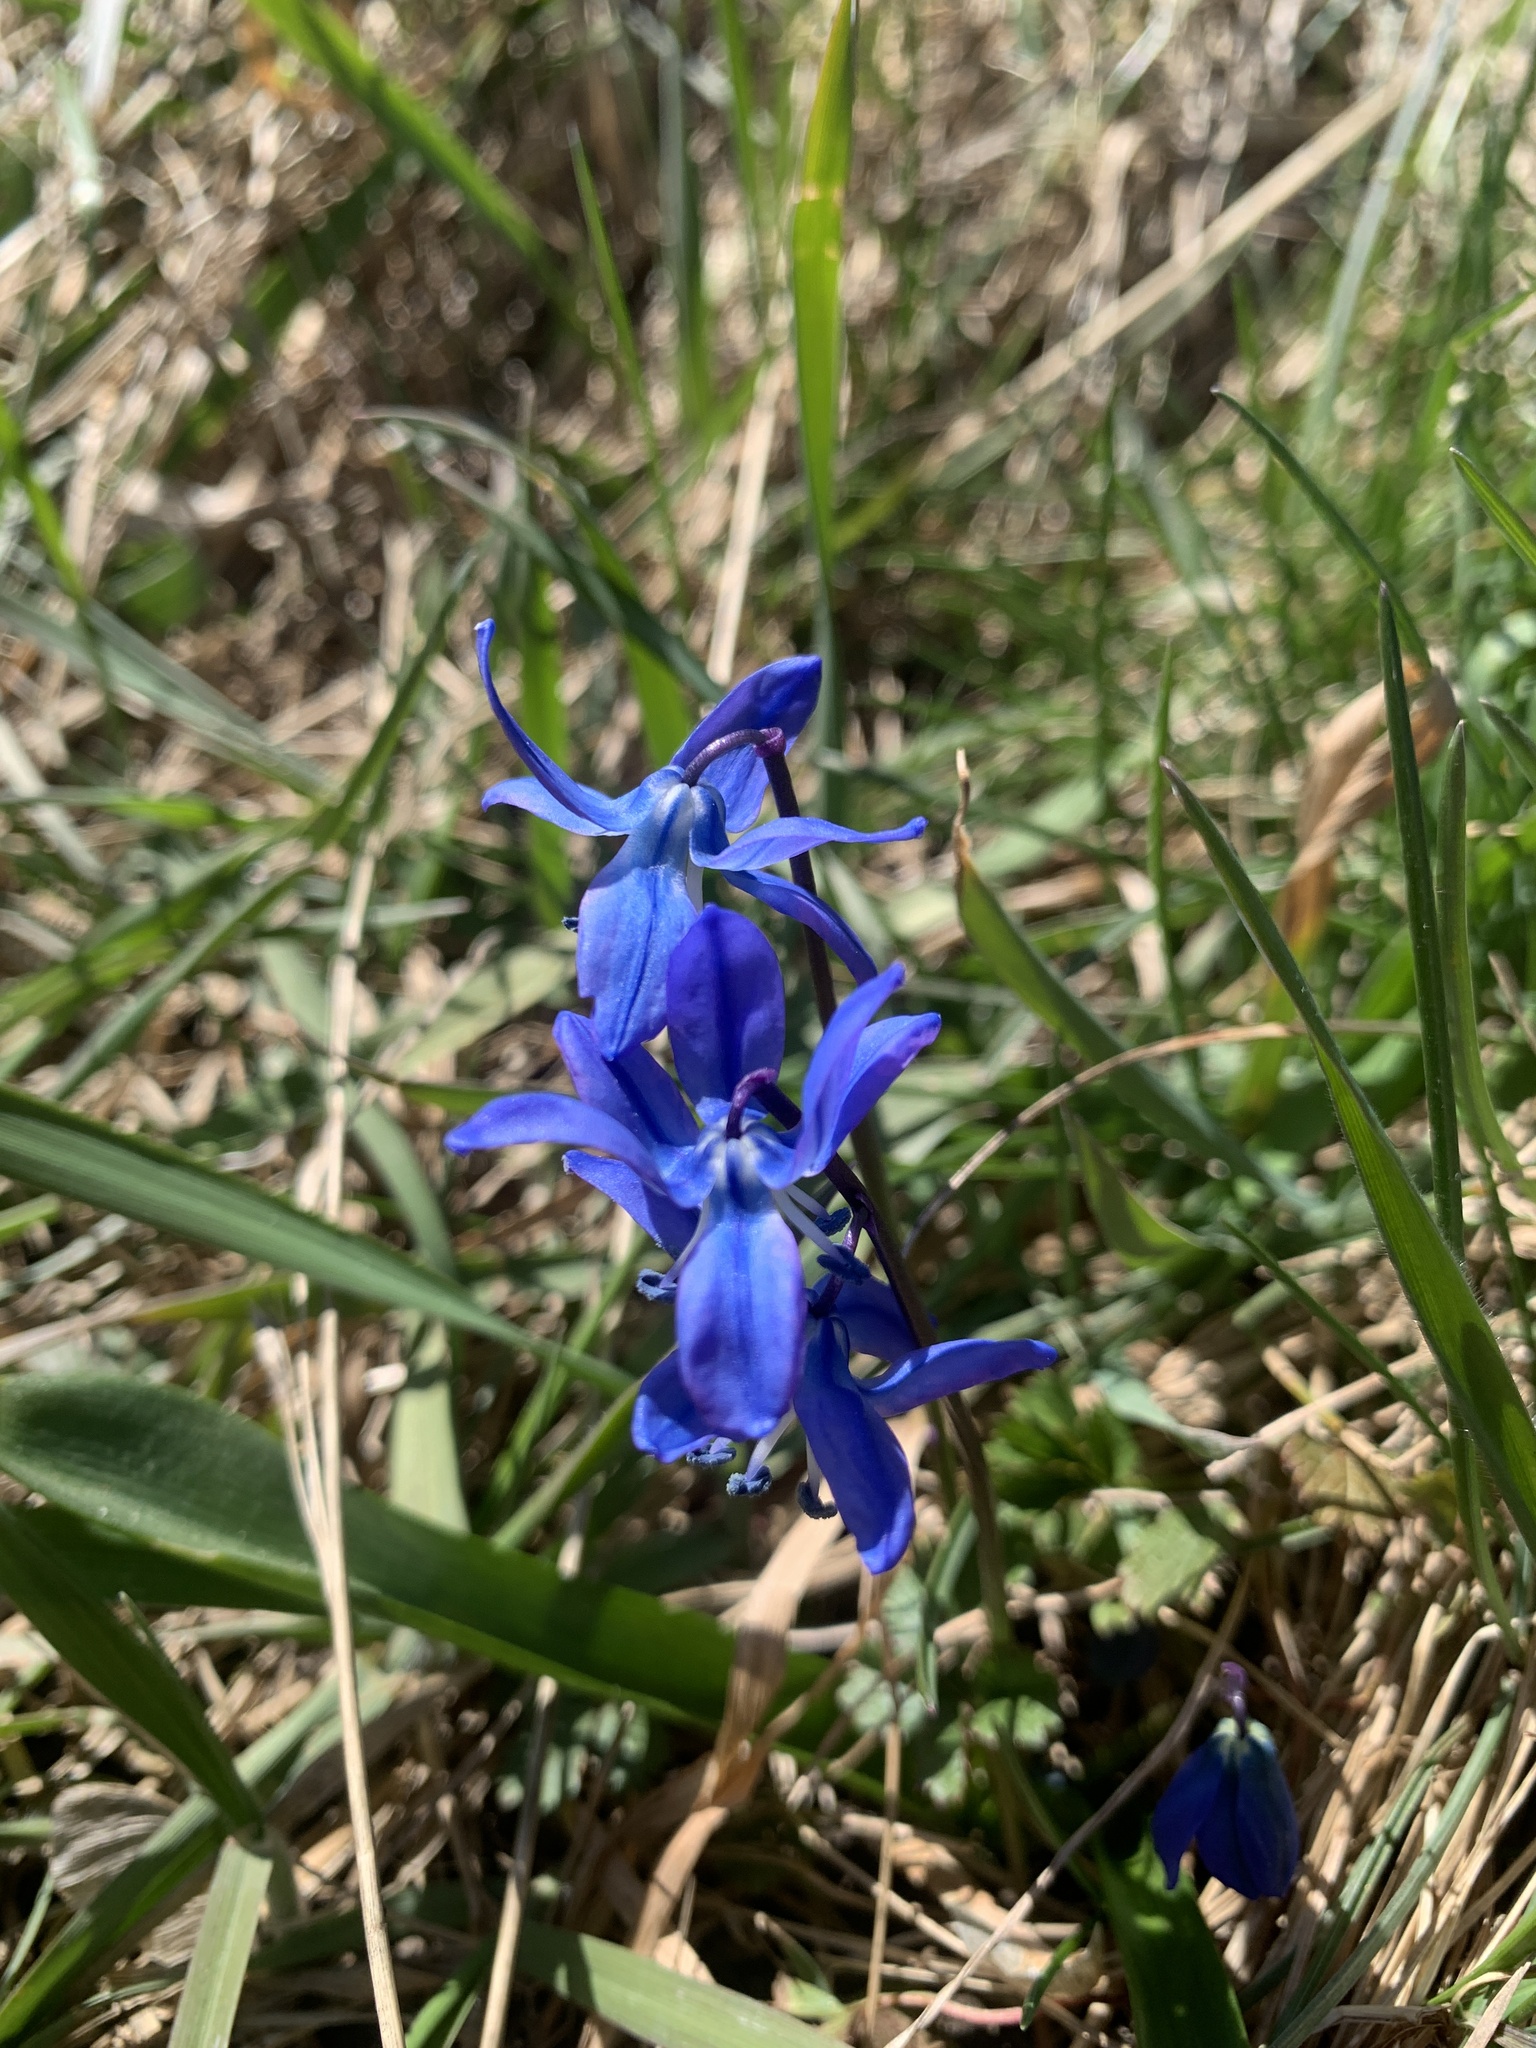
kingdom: Plantae
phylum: Tracheophyta
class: Liliopsida
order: Asparagales
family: Asparagaceae
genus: Scilla
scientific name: Scilla siberica
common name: Siberian squill
